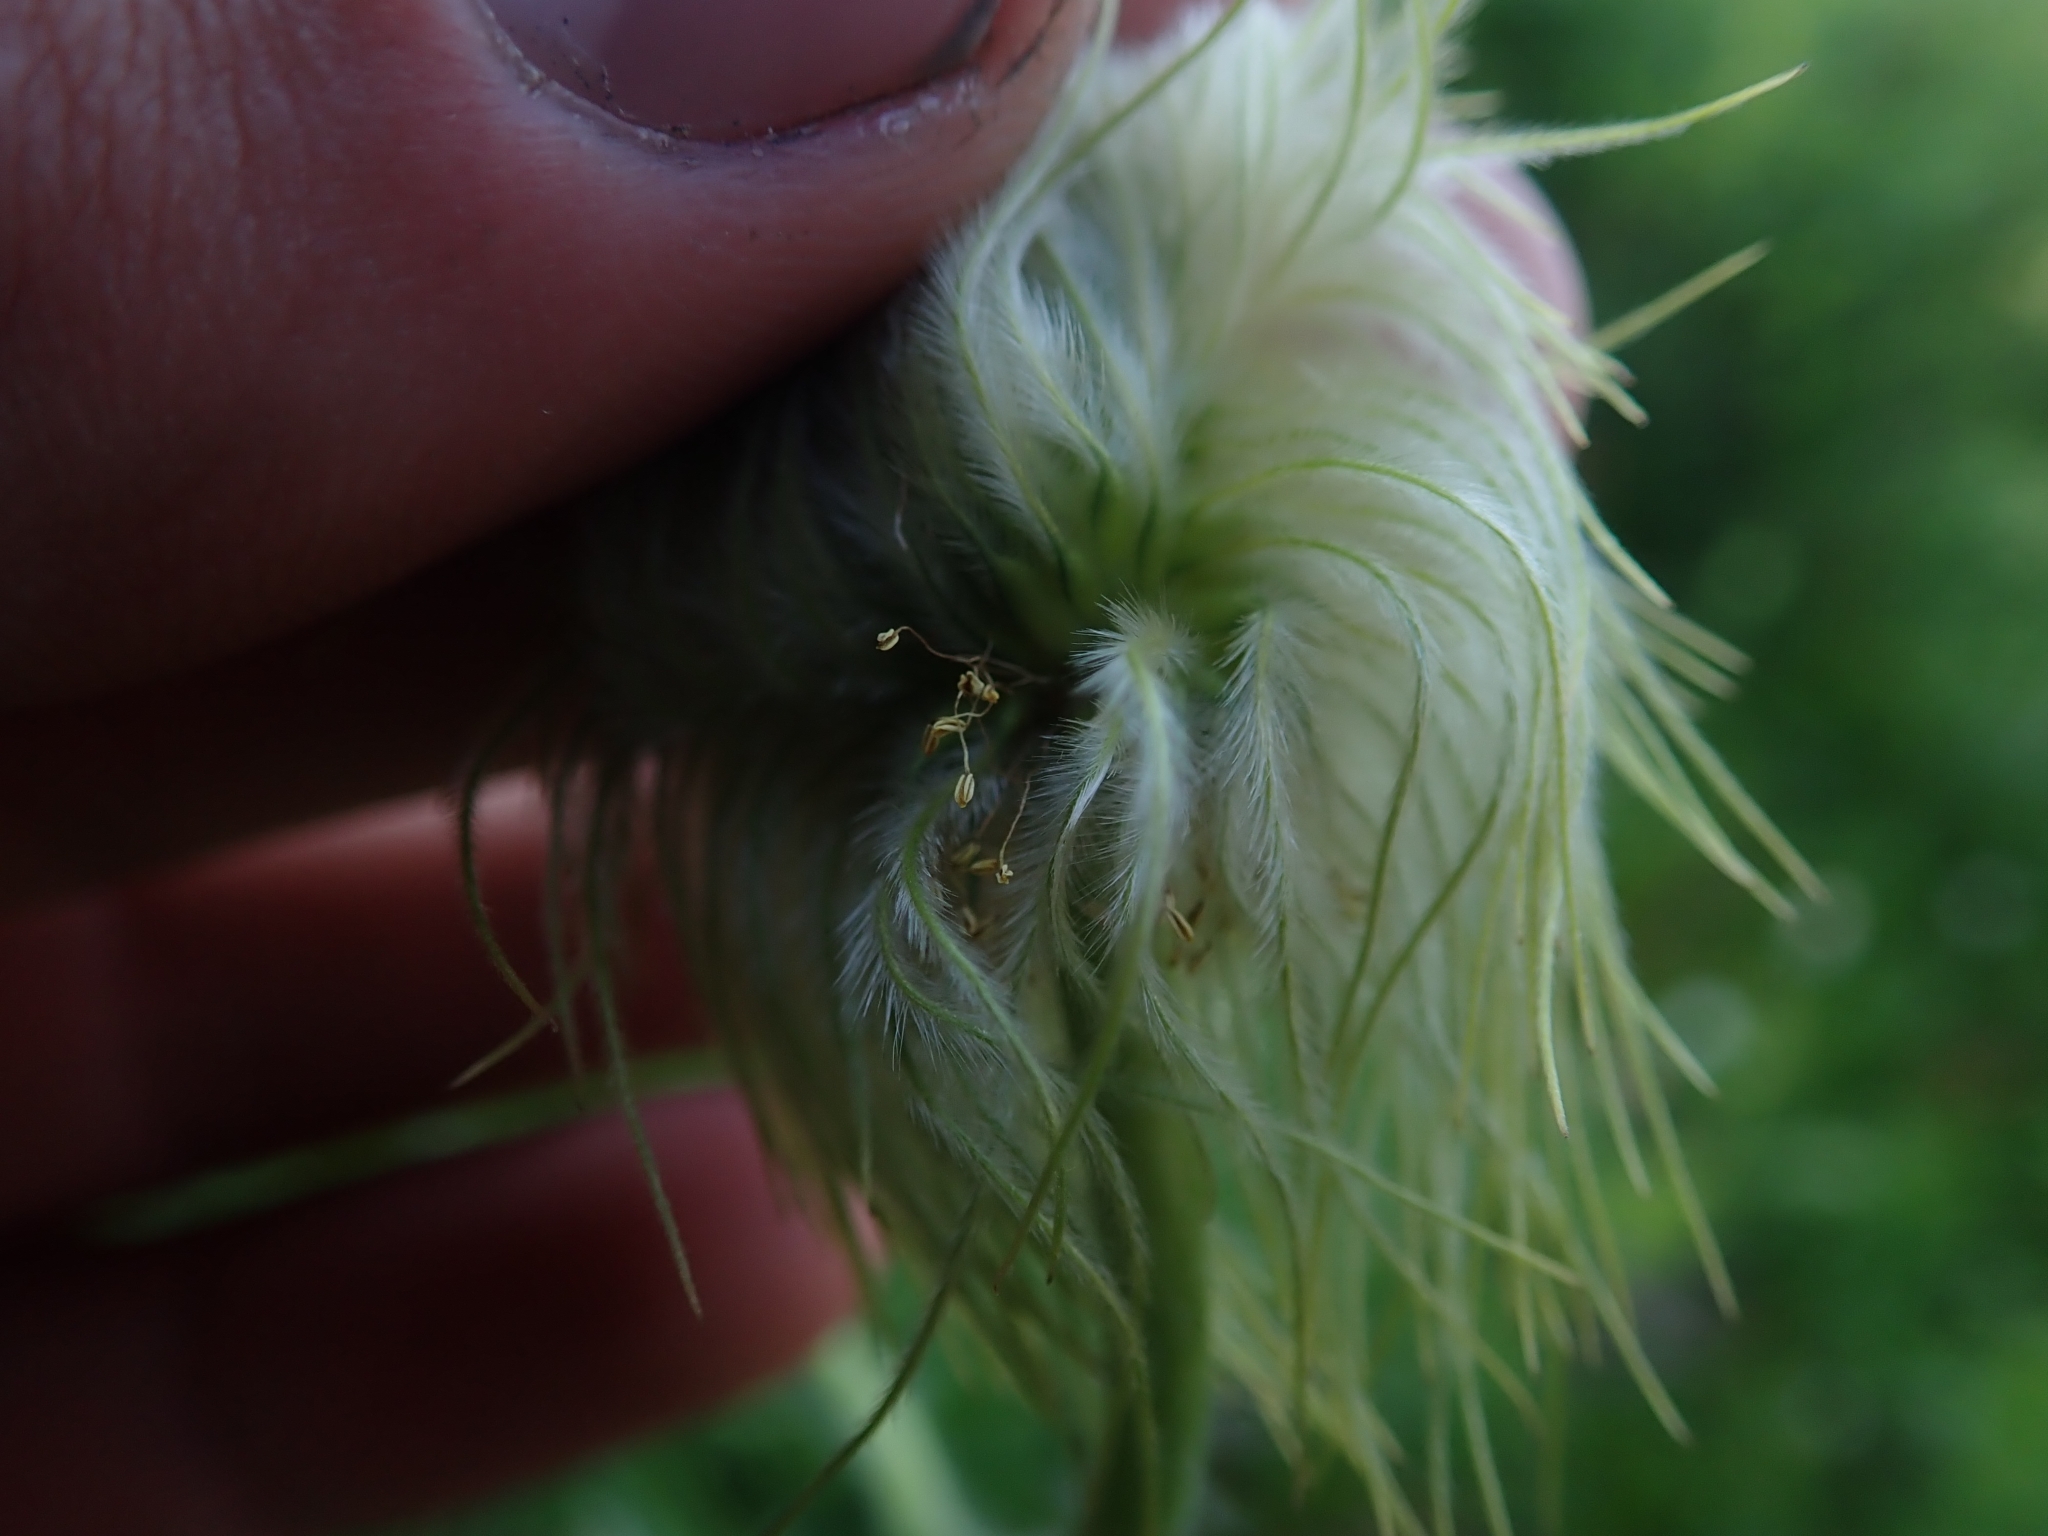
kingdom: Plantae
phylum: Tracheophyta
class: Magnoliopsida
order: Ranunculales
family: Ranunculaceae
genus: Pulsatilla
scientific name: Pulsatilla occidentalis
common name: Mountain pasqueflower
